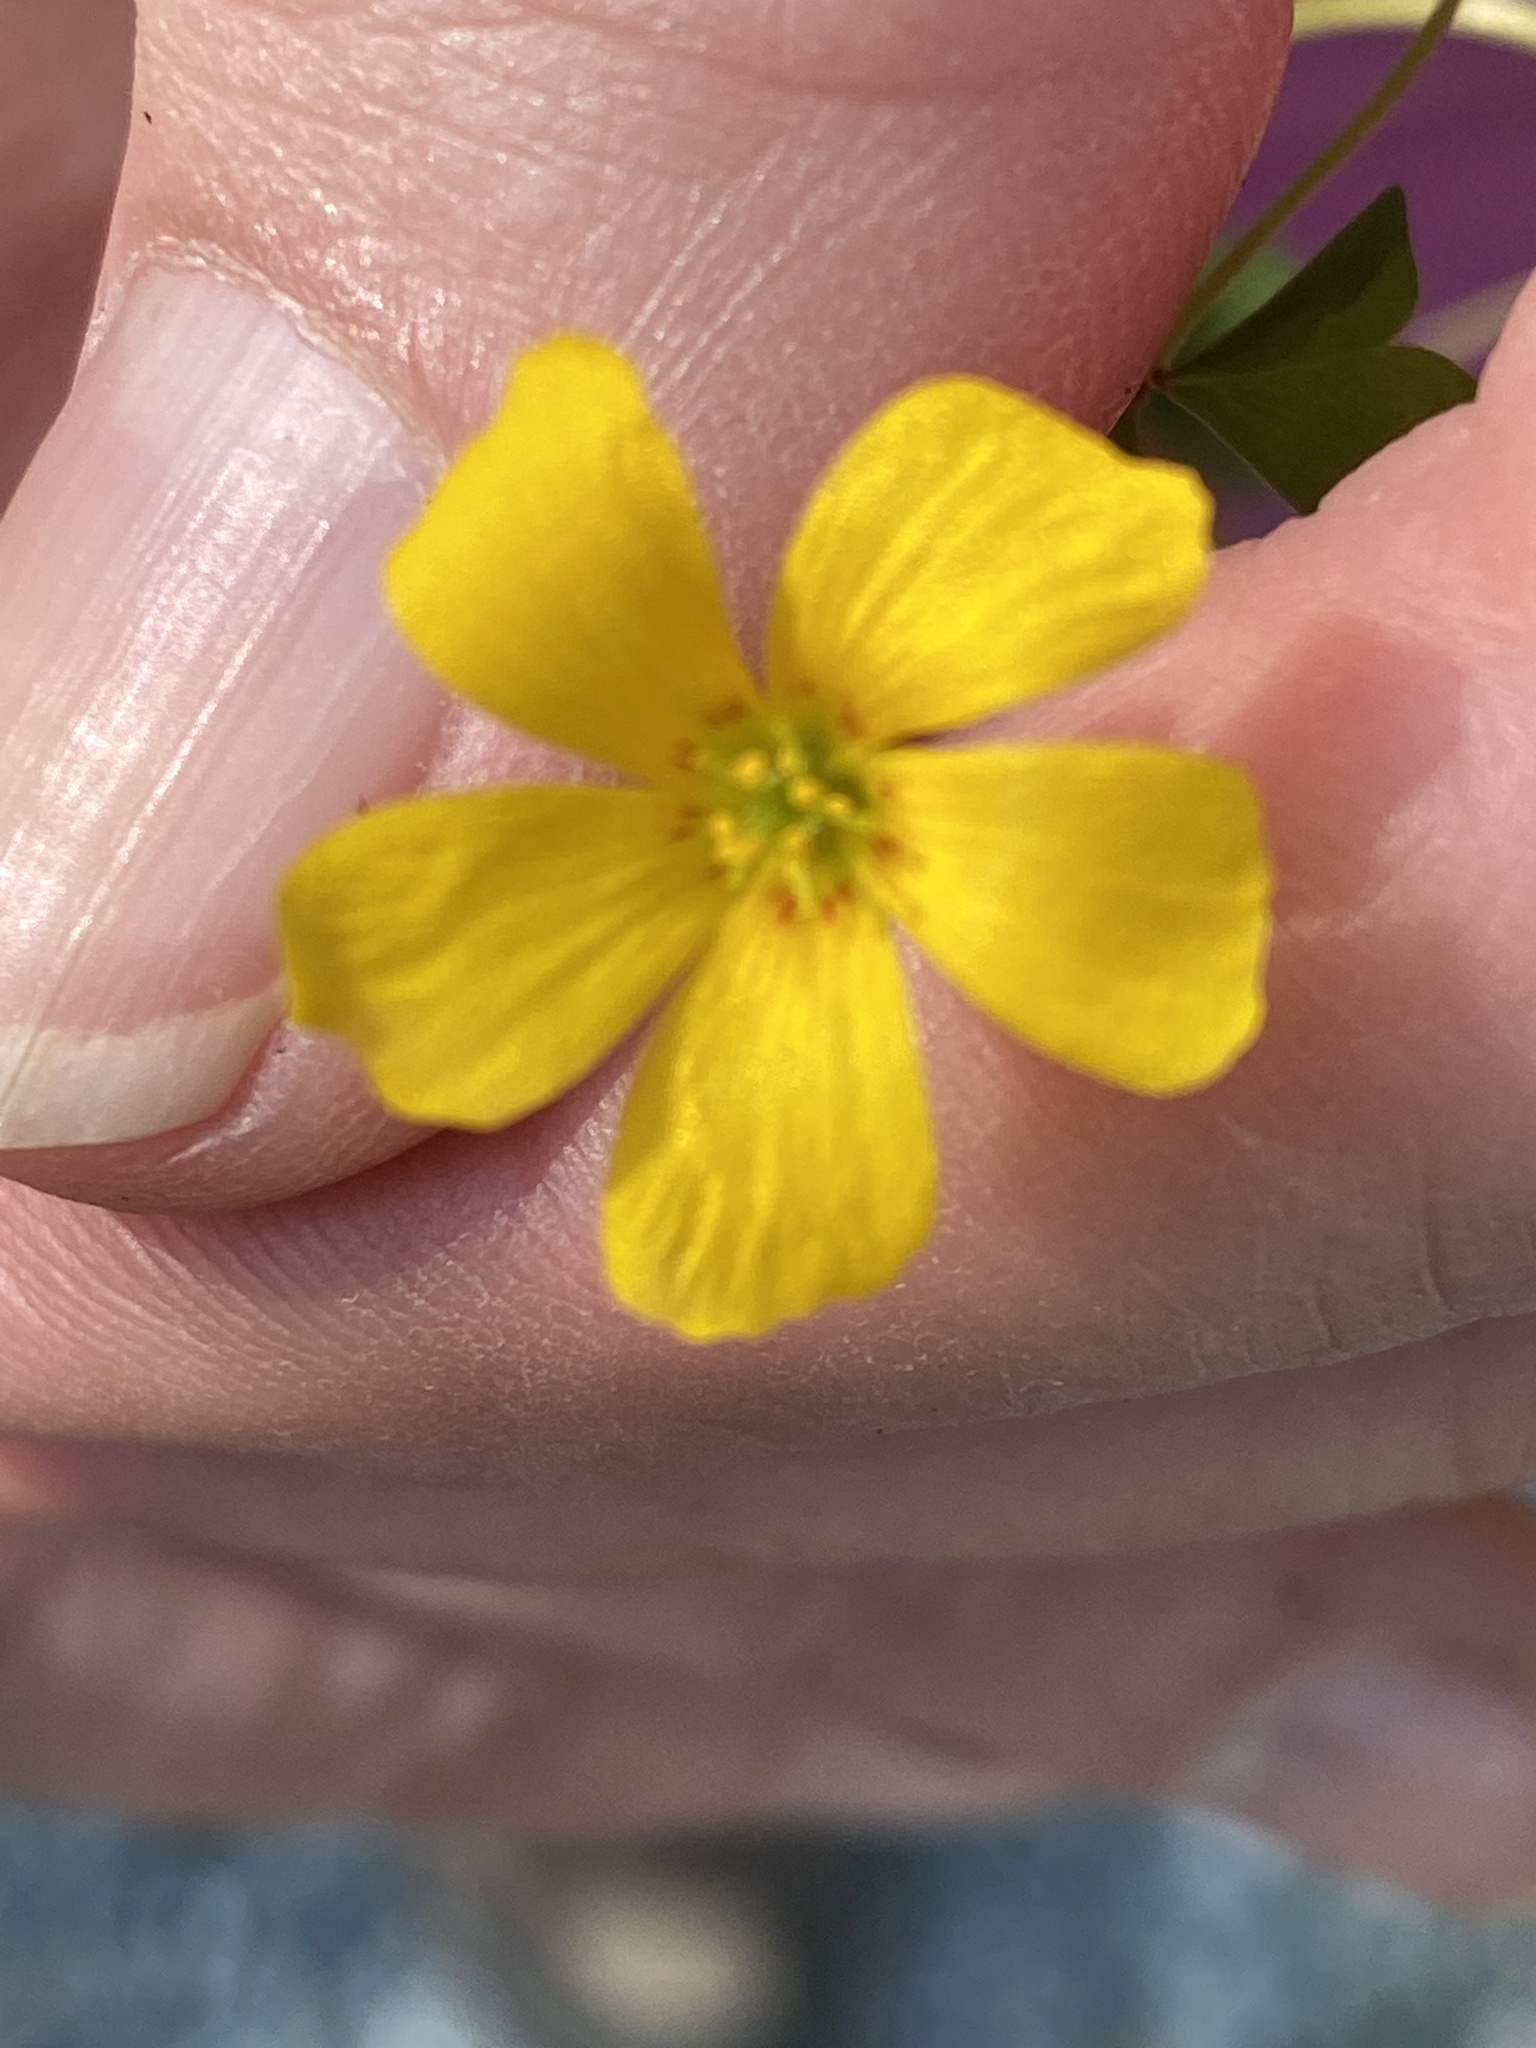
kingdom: Plantae
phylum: Tracheophyta
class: Magnoliopsida
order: Oxalidales
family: Oxalidaceae
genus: Oxalis
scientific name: Oxalis colorea
